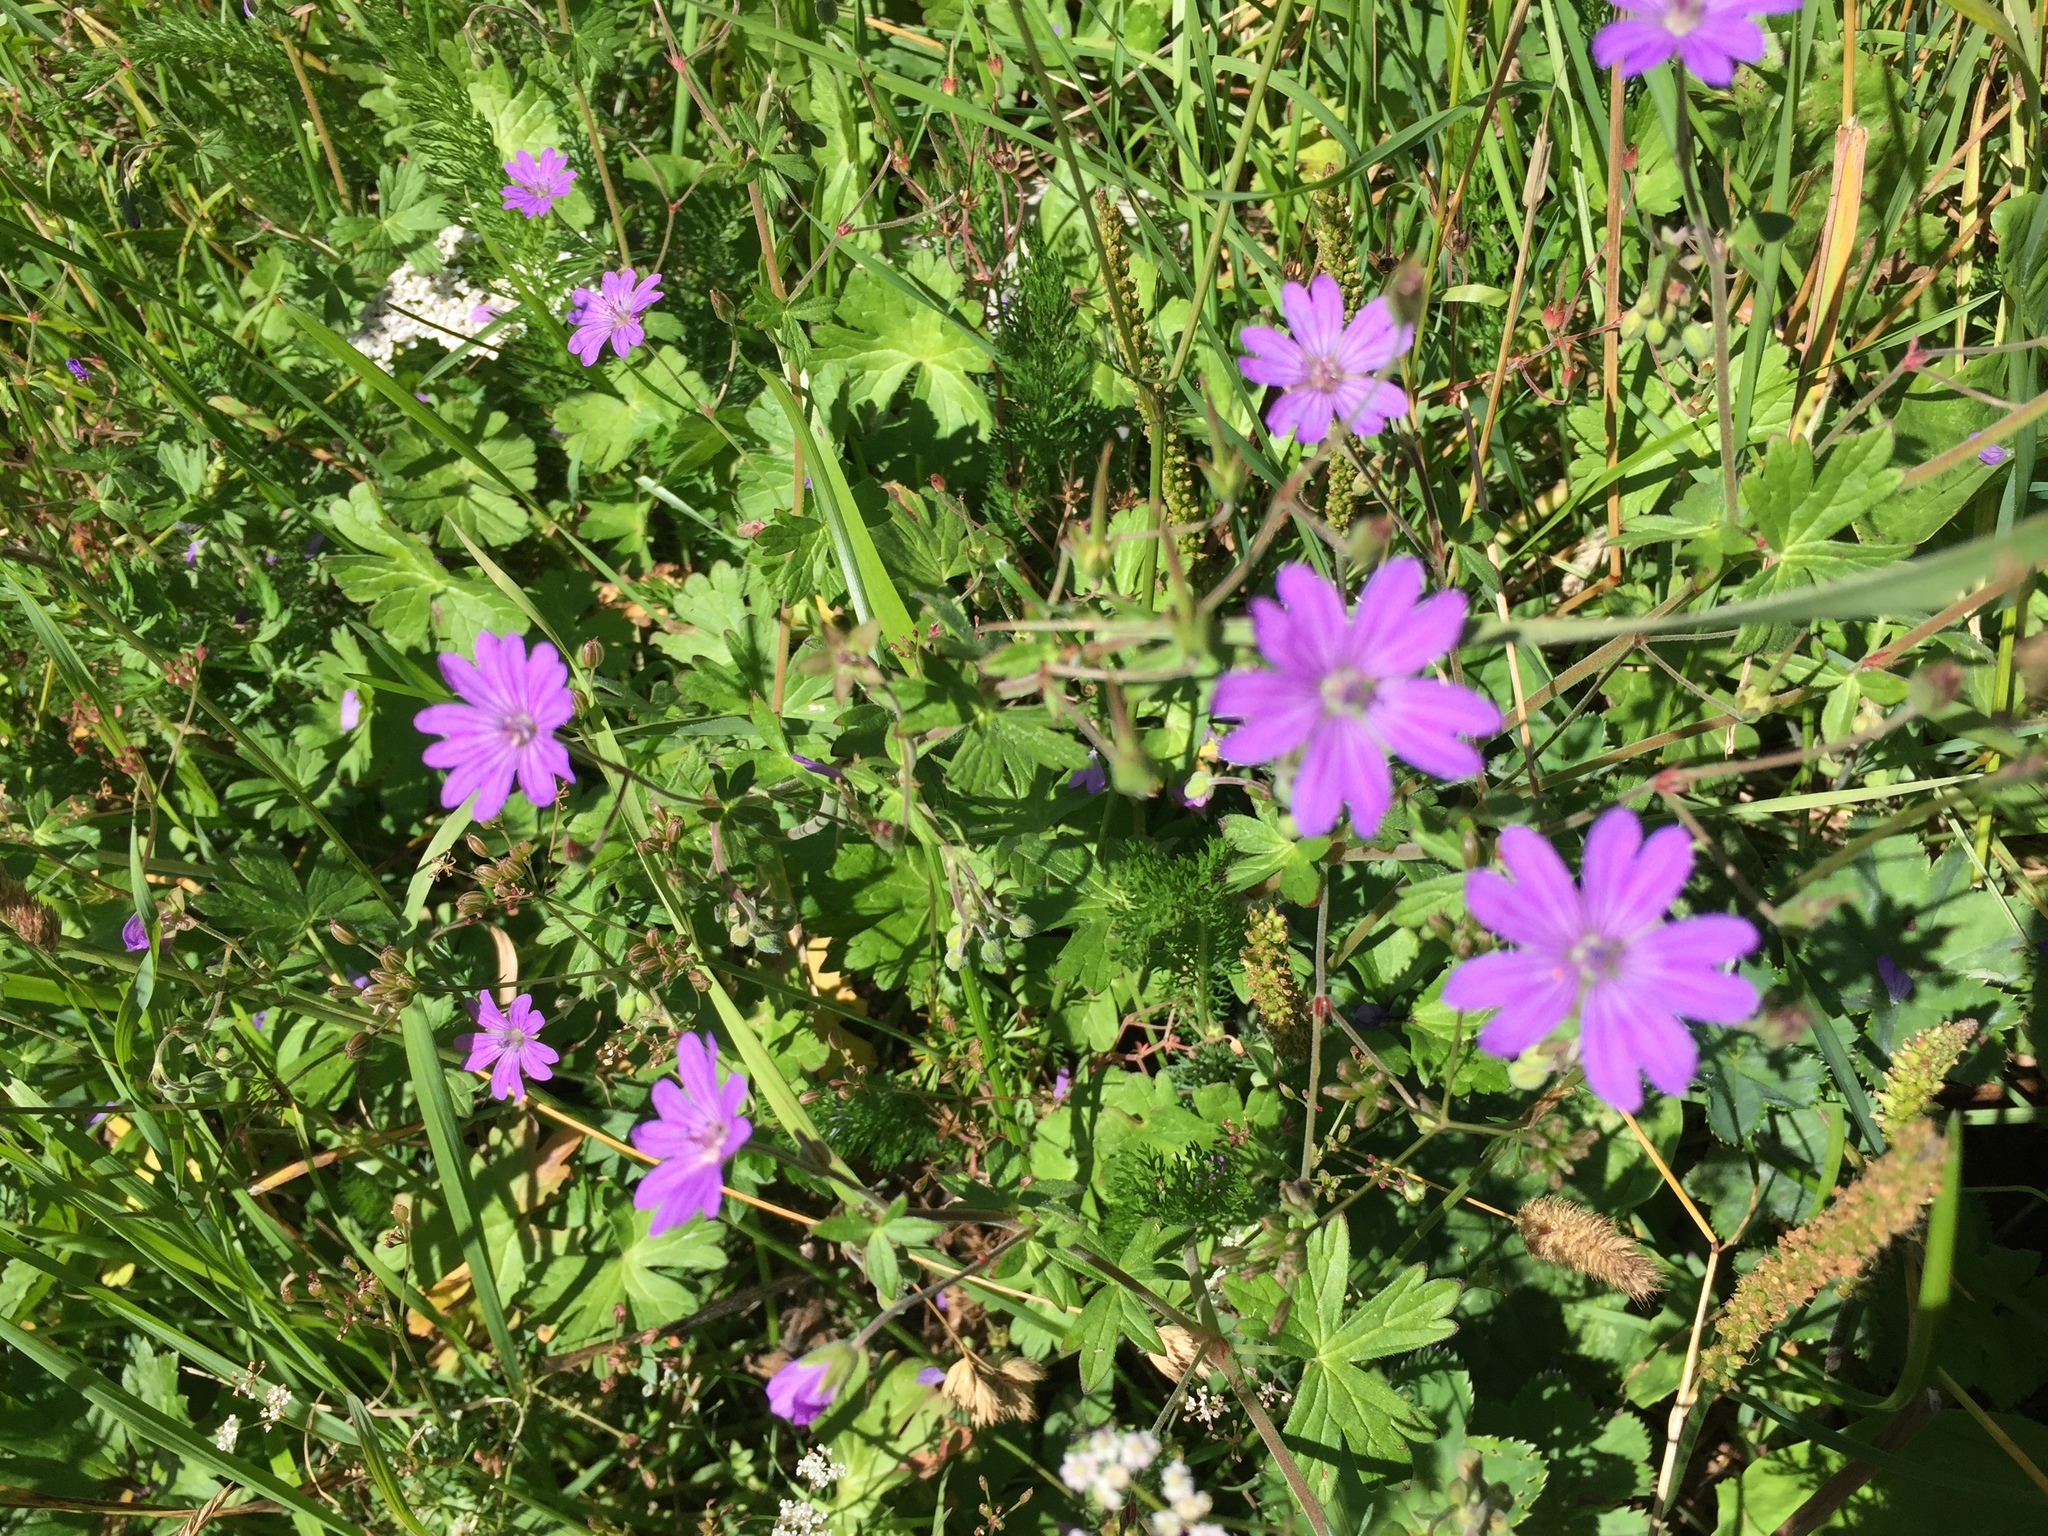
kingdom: Plantae
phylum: Tracheophyta
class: Magnoliopsida
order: Geraniales
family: Geraniaceae
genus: Geranium
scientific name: Geranium pyrenaicum
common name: Hedgerow crane's-bill
